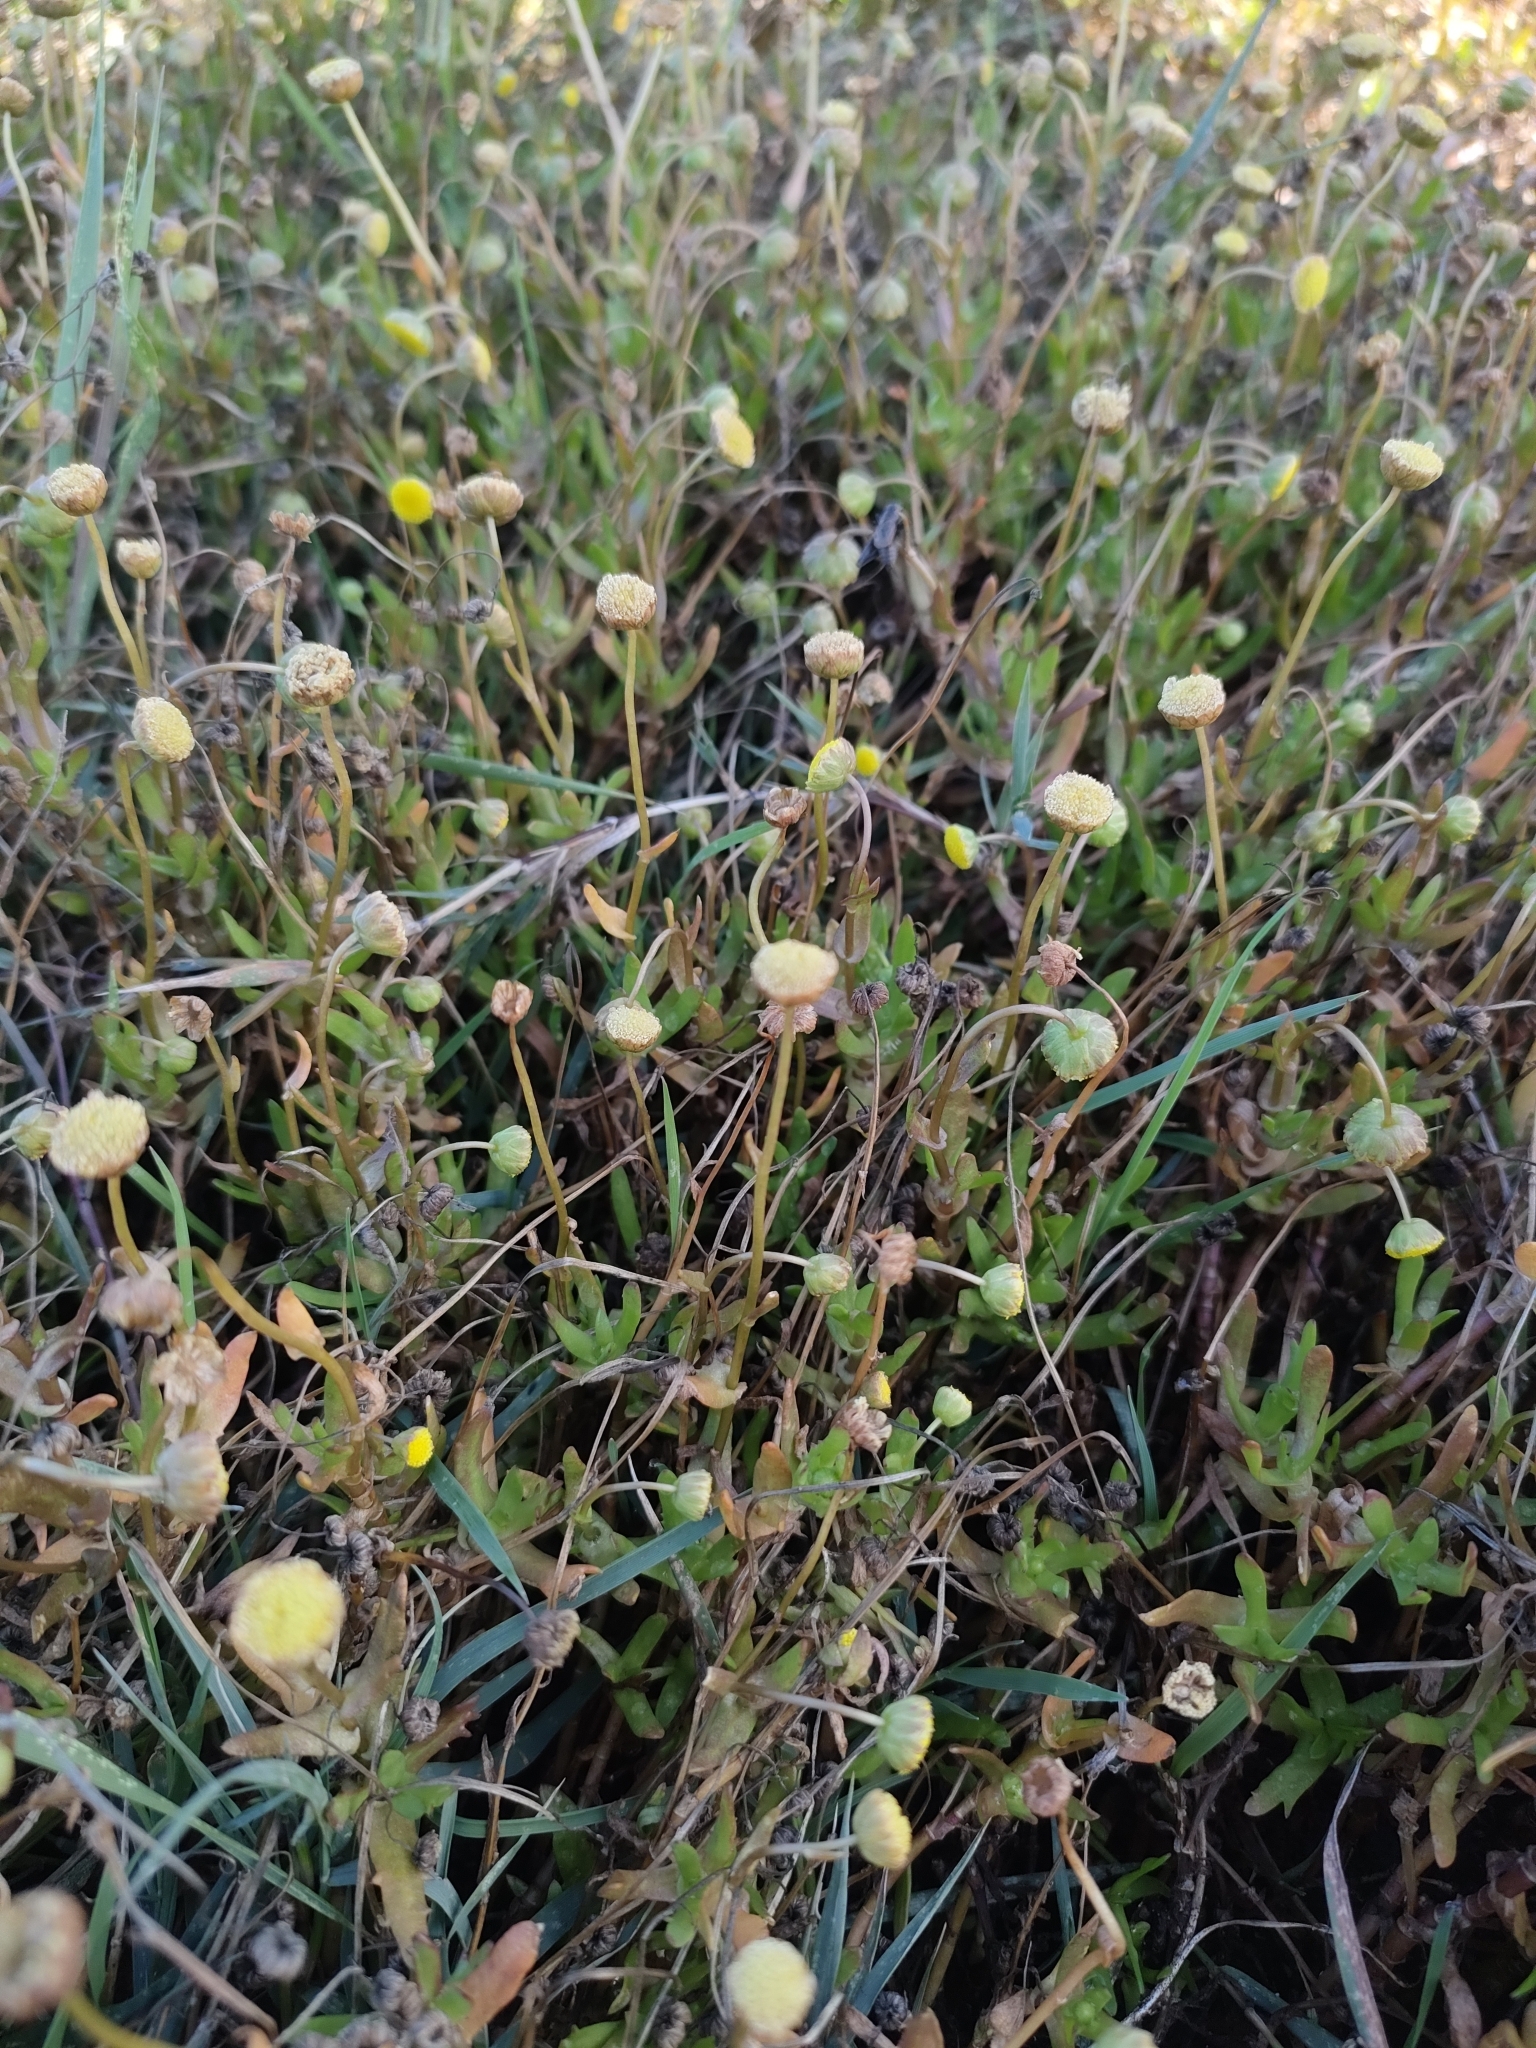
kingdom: Plantae
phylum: Tracheophyta
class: Magnoliopsida
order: Asterales
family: Asteraceae
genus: Cotula
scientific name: Cotula coronopifolia
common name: Buttonweed
